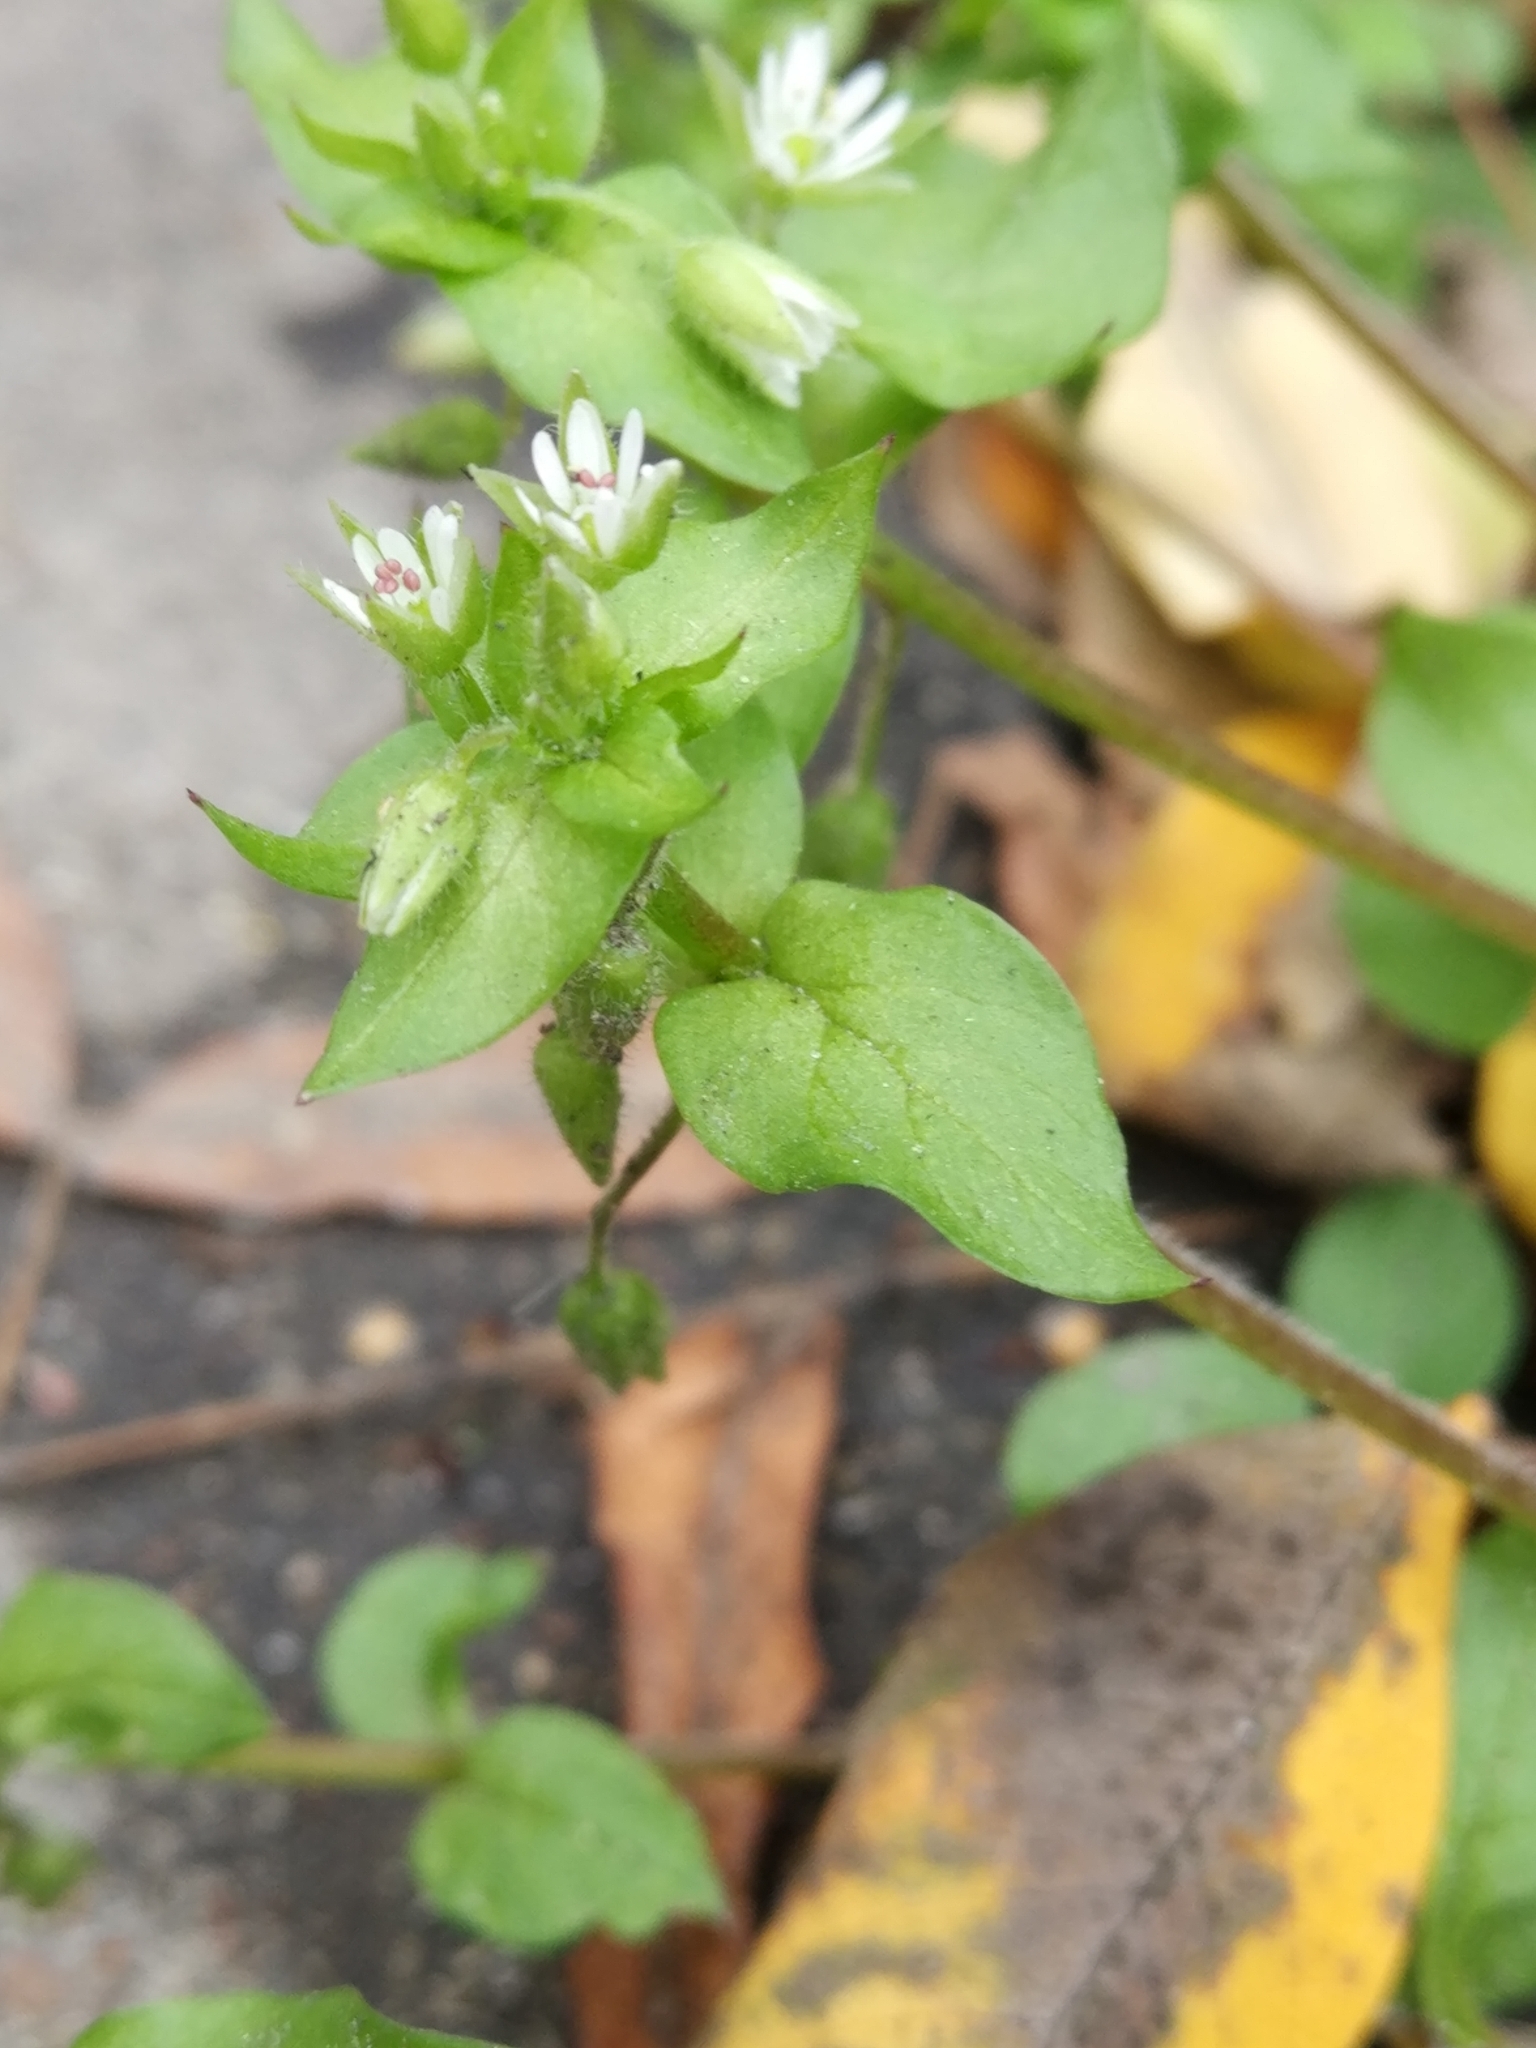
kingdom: Plantae
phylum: Tracheophyta
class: Magnoliopsida
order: Caryophyllales
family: Caryophyllaceae
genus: Stellaria
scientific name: Stellaria media
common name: Common chickweed
